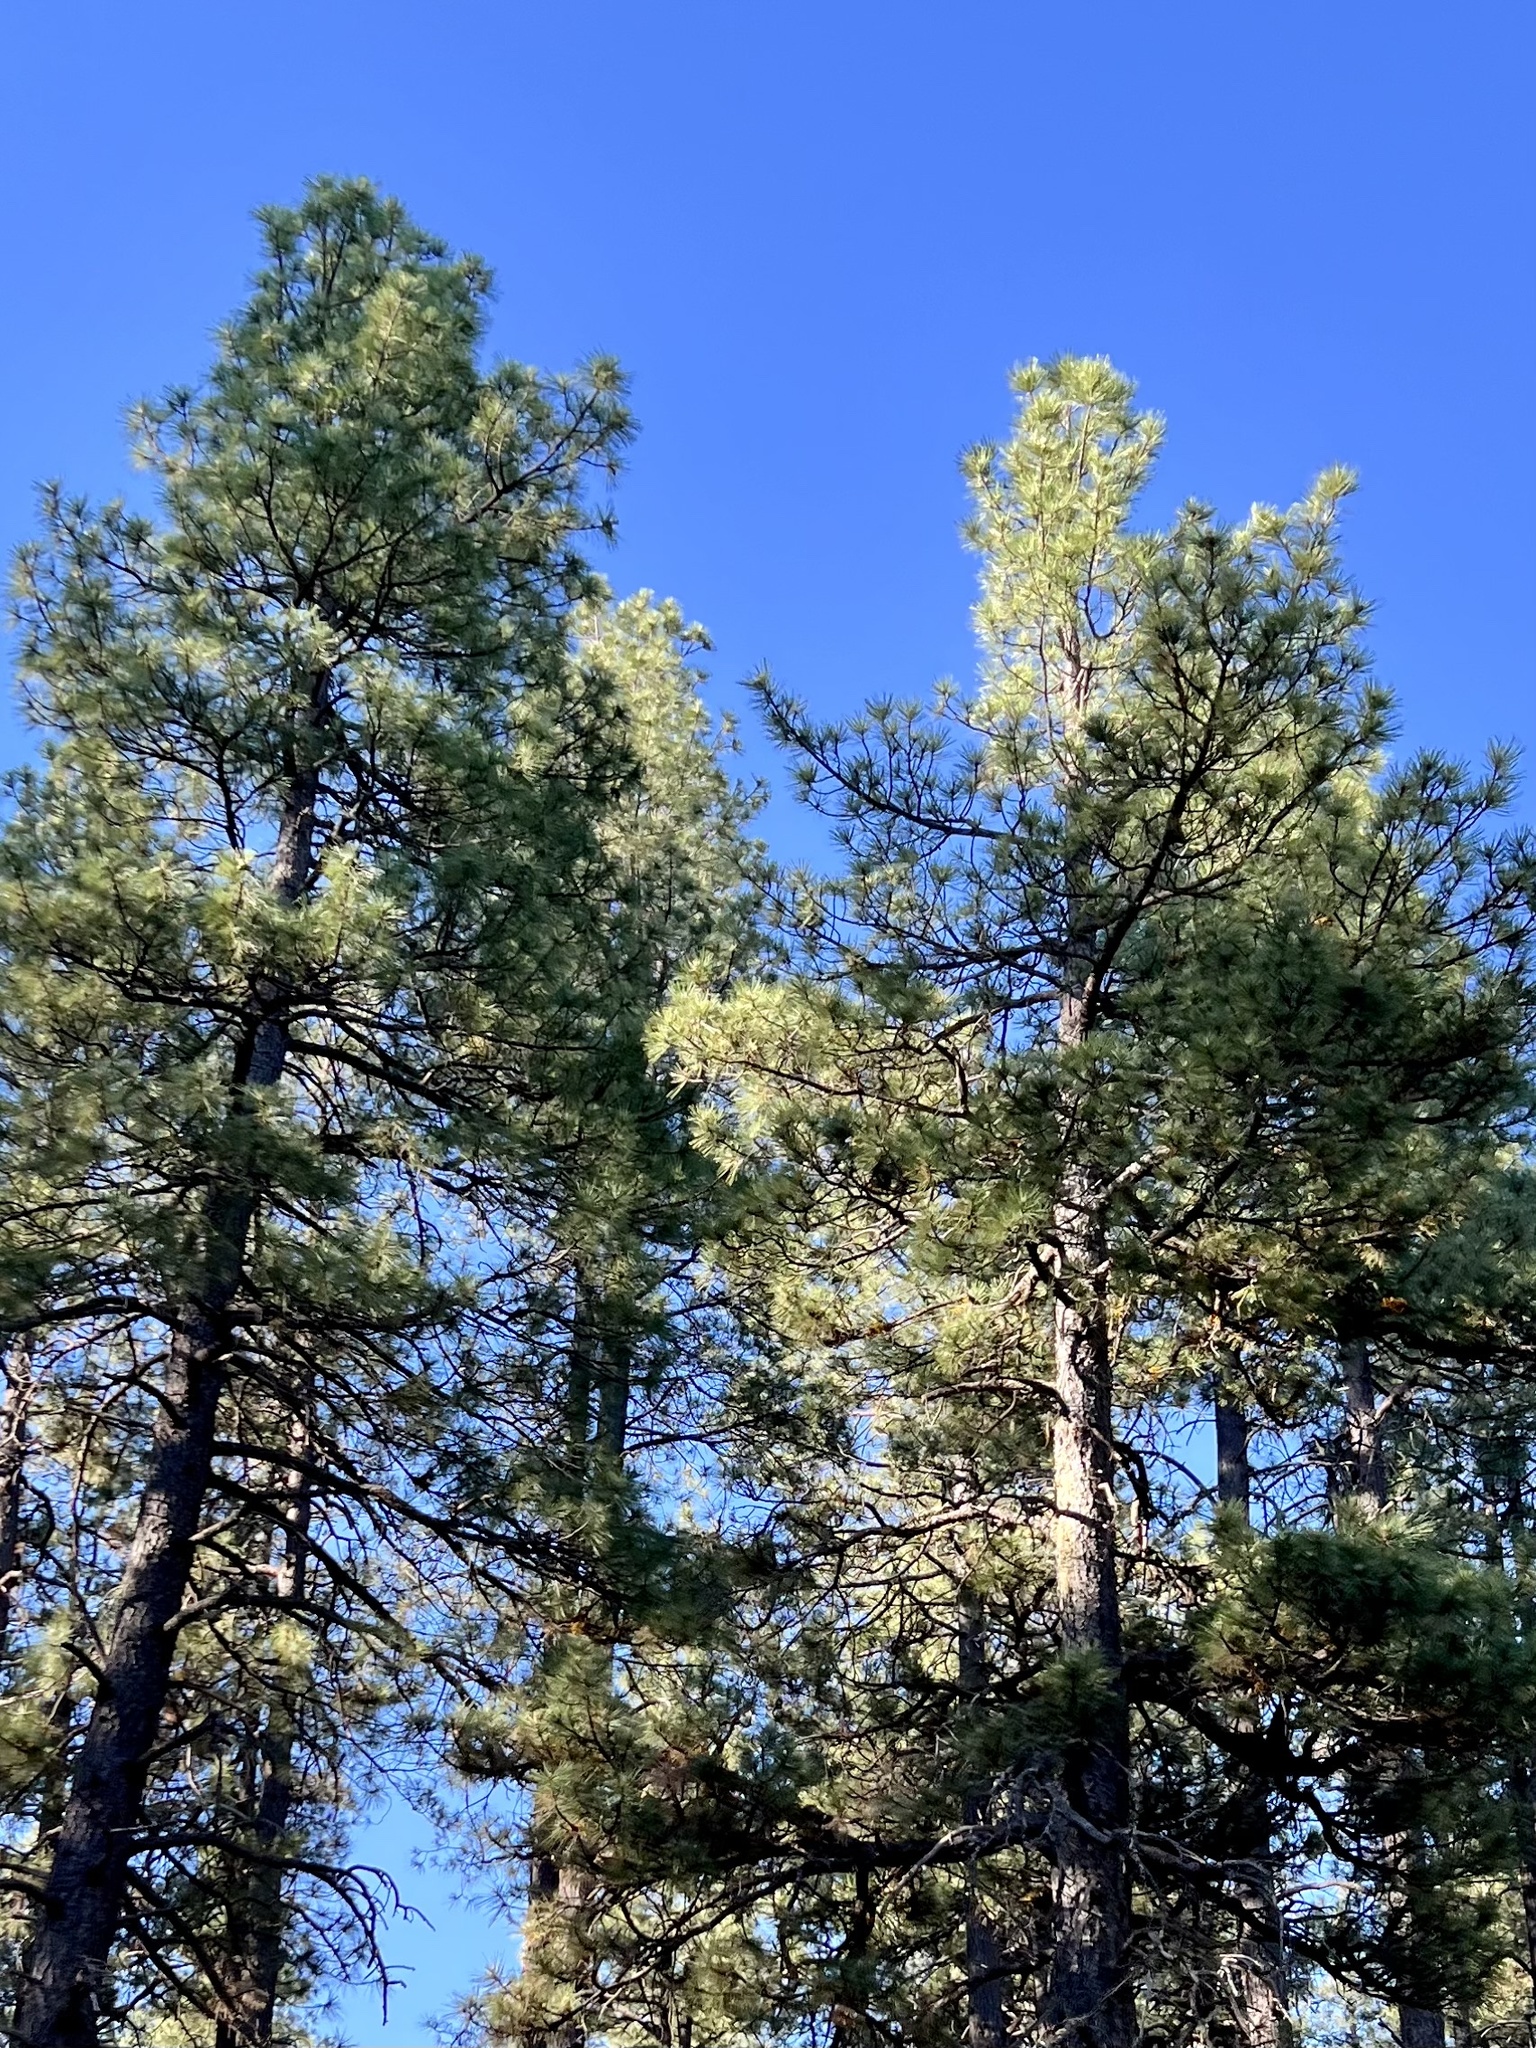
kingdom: Plantae
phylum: Tracheophyta
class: Pinopsida
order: Pinales
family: Pinaceae
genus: Pinus
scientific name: Pinus ponderosa
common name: Western yellow-pine
